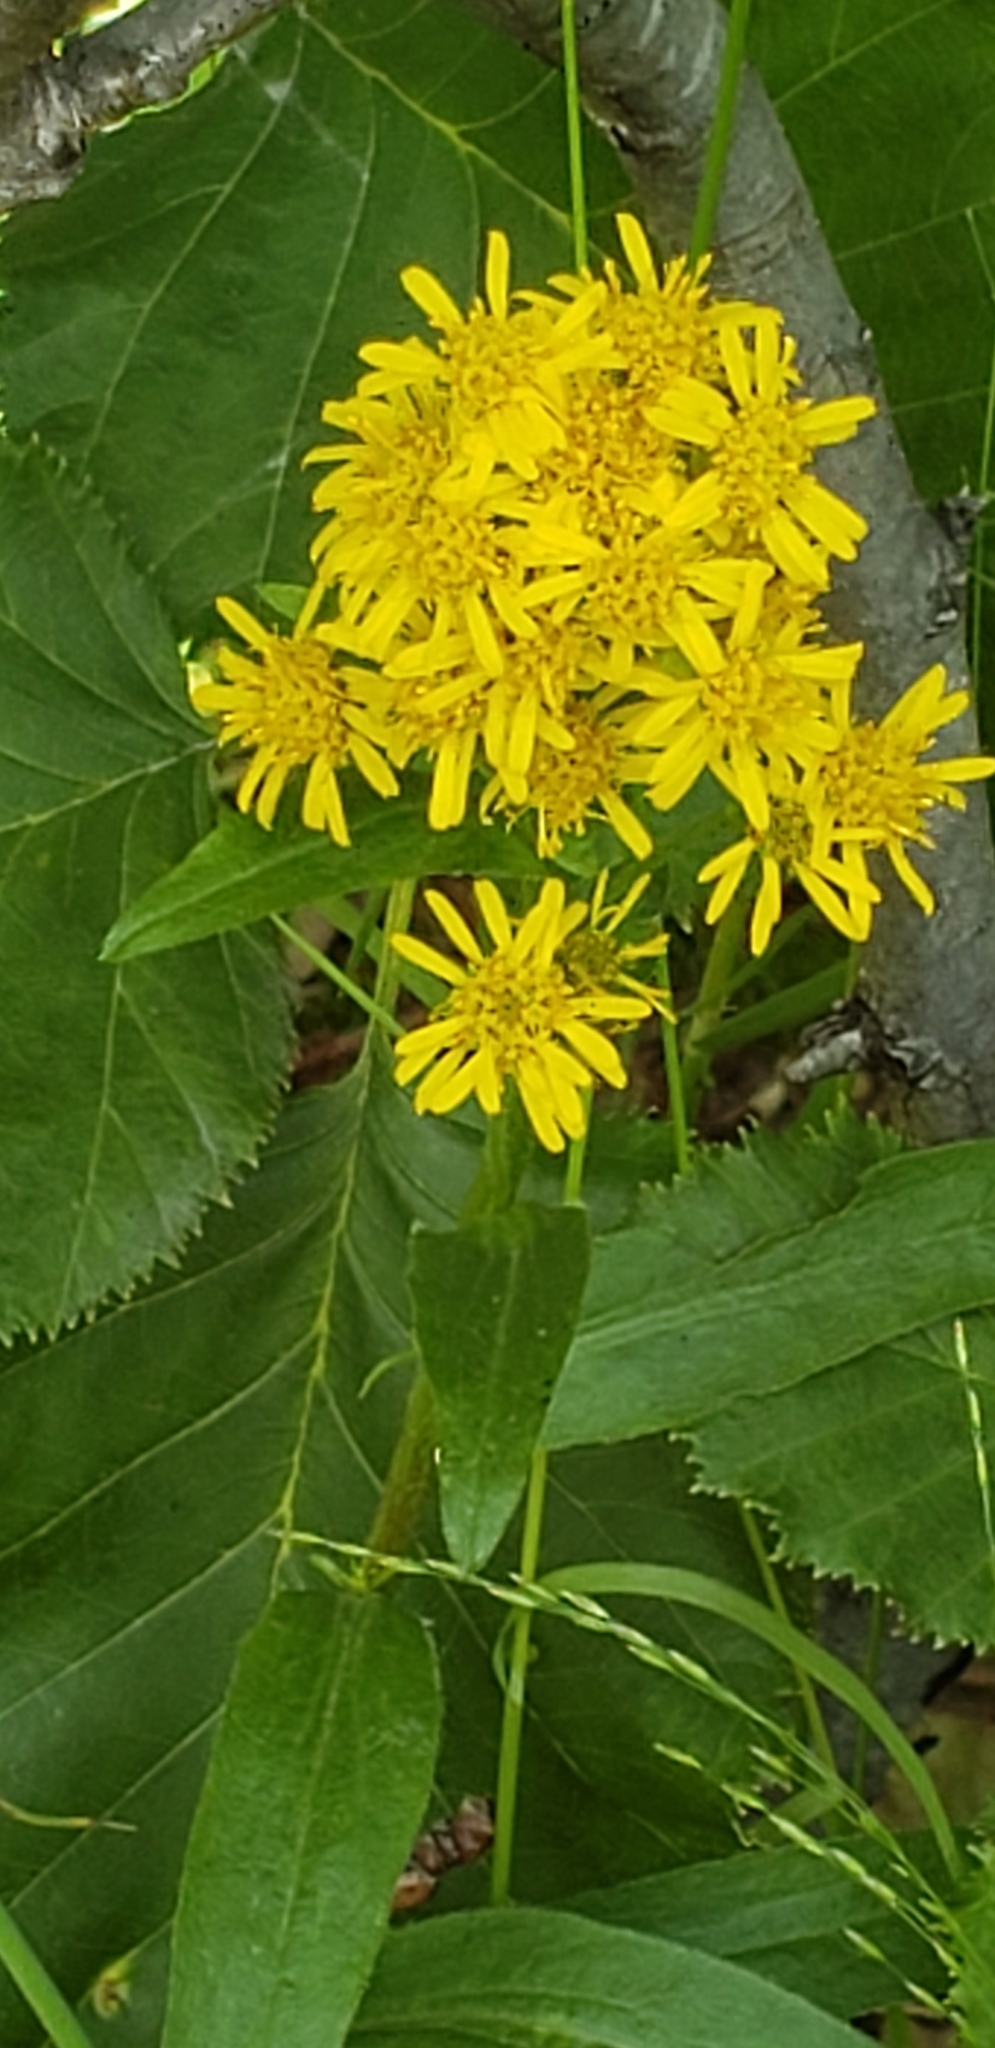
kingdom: Plantae
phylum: Tracheophyta
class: Magnoliopsida
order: Asterales
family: Asteraceae
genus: Solidago
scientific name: Solidago multiradiata
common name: Northern goldenrod
